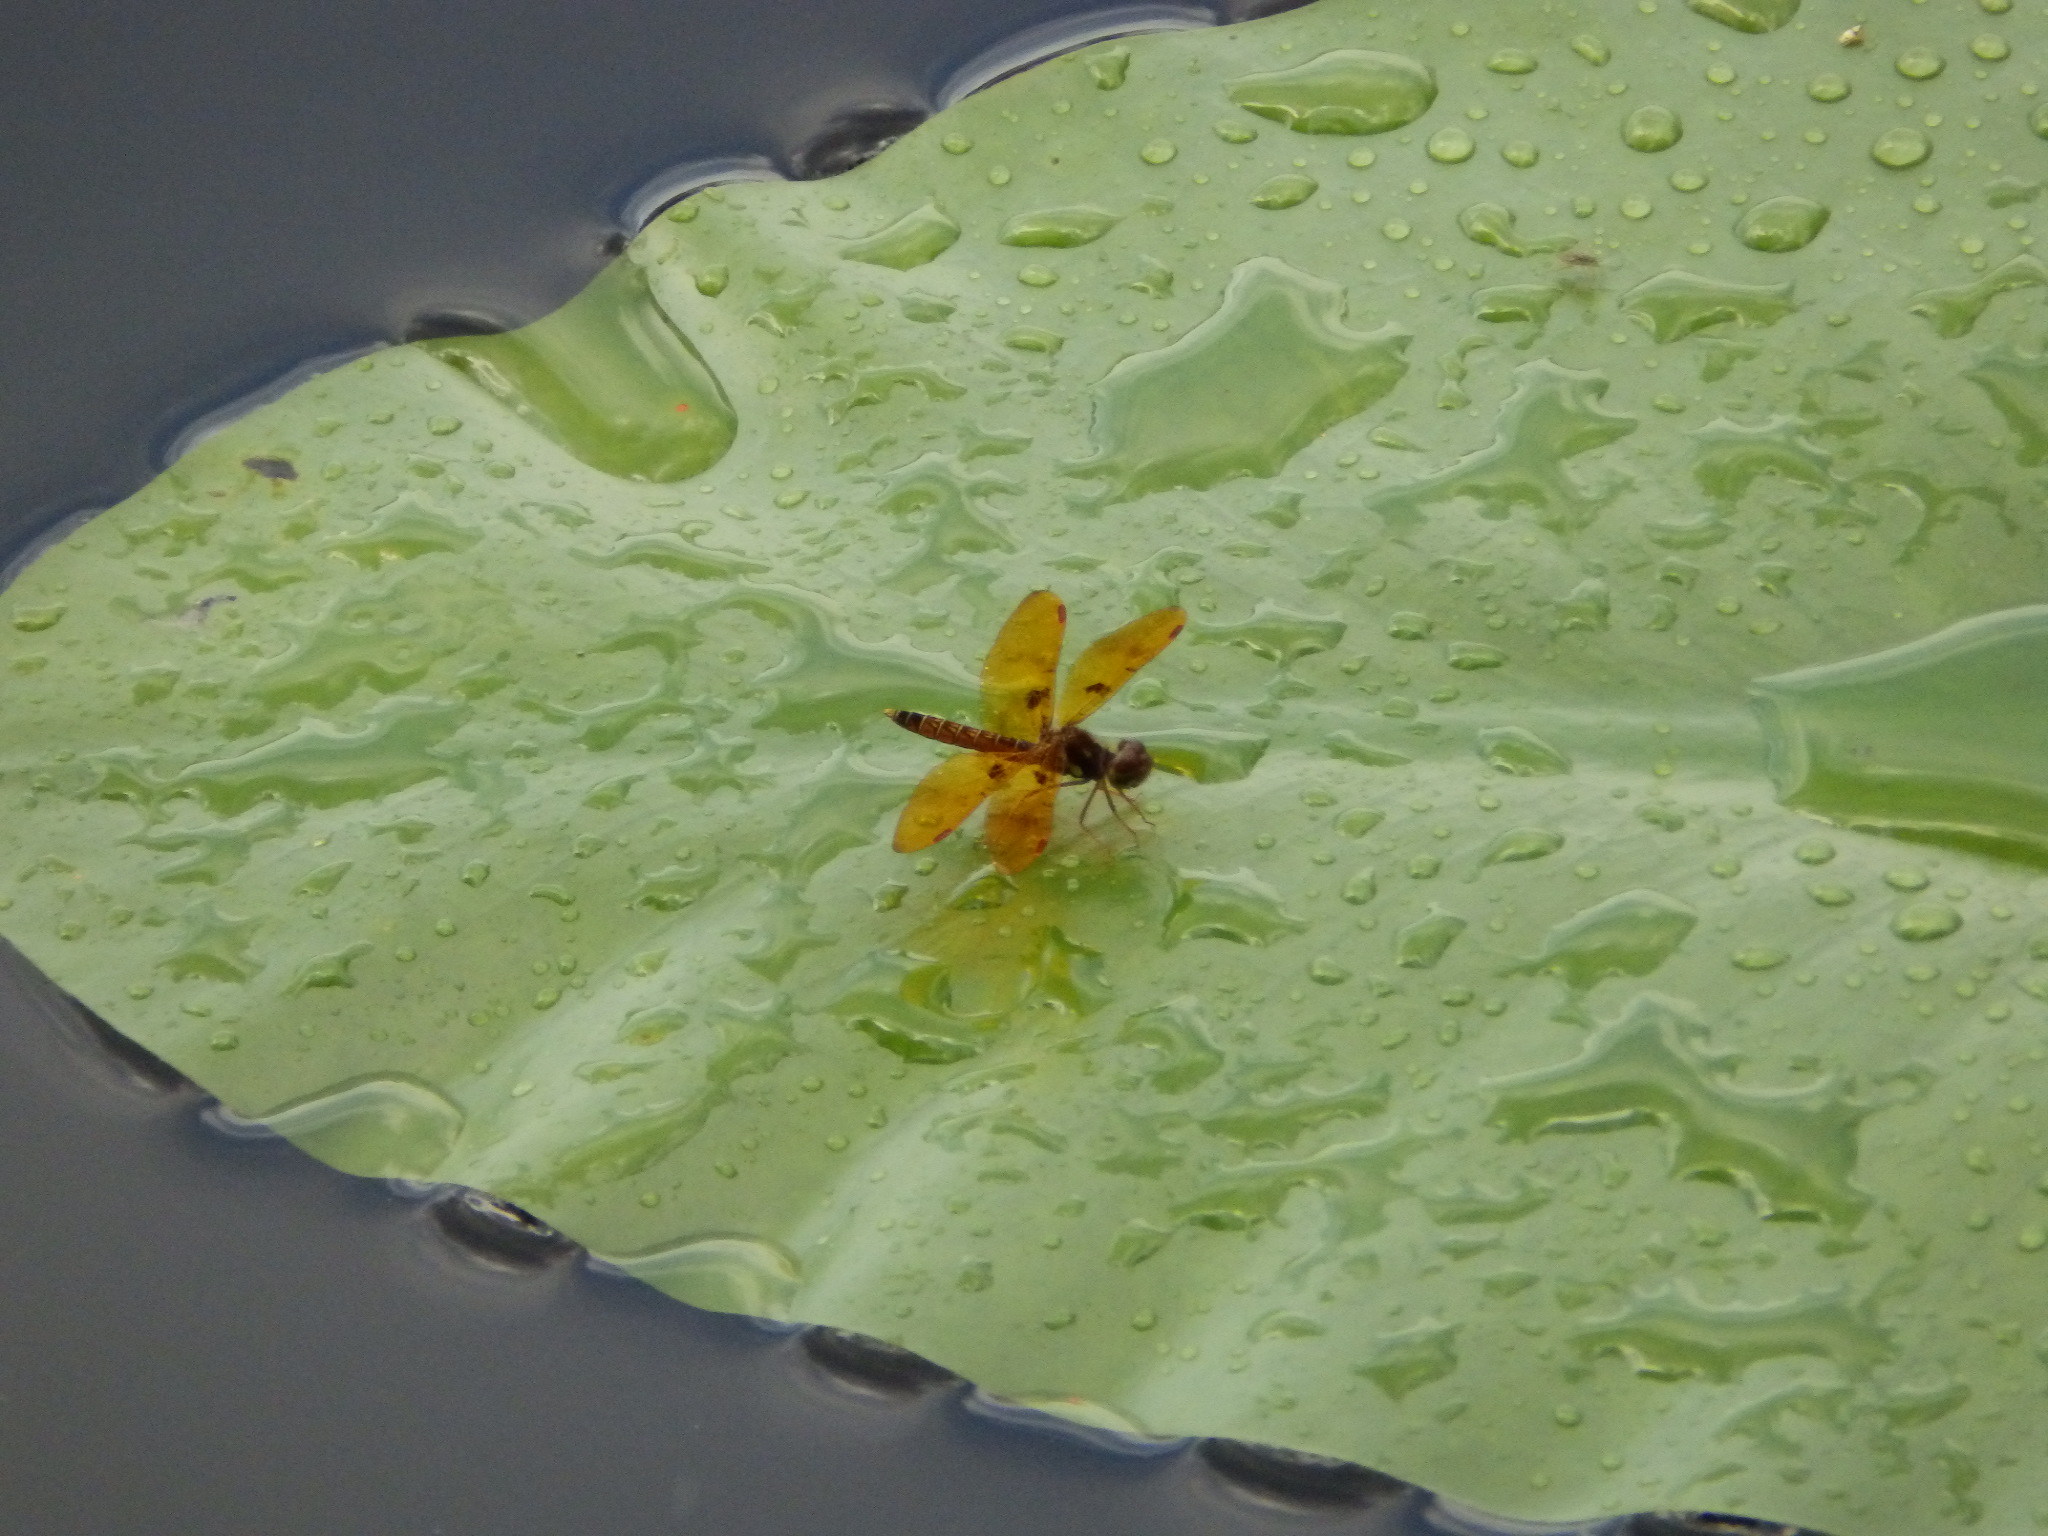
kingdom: Animalia
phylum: Arthropoda
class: Insecta
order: Odonata
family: Libellulidae
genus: Perithemis
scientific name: Perithemis tenera
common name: Eastern amberwing
